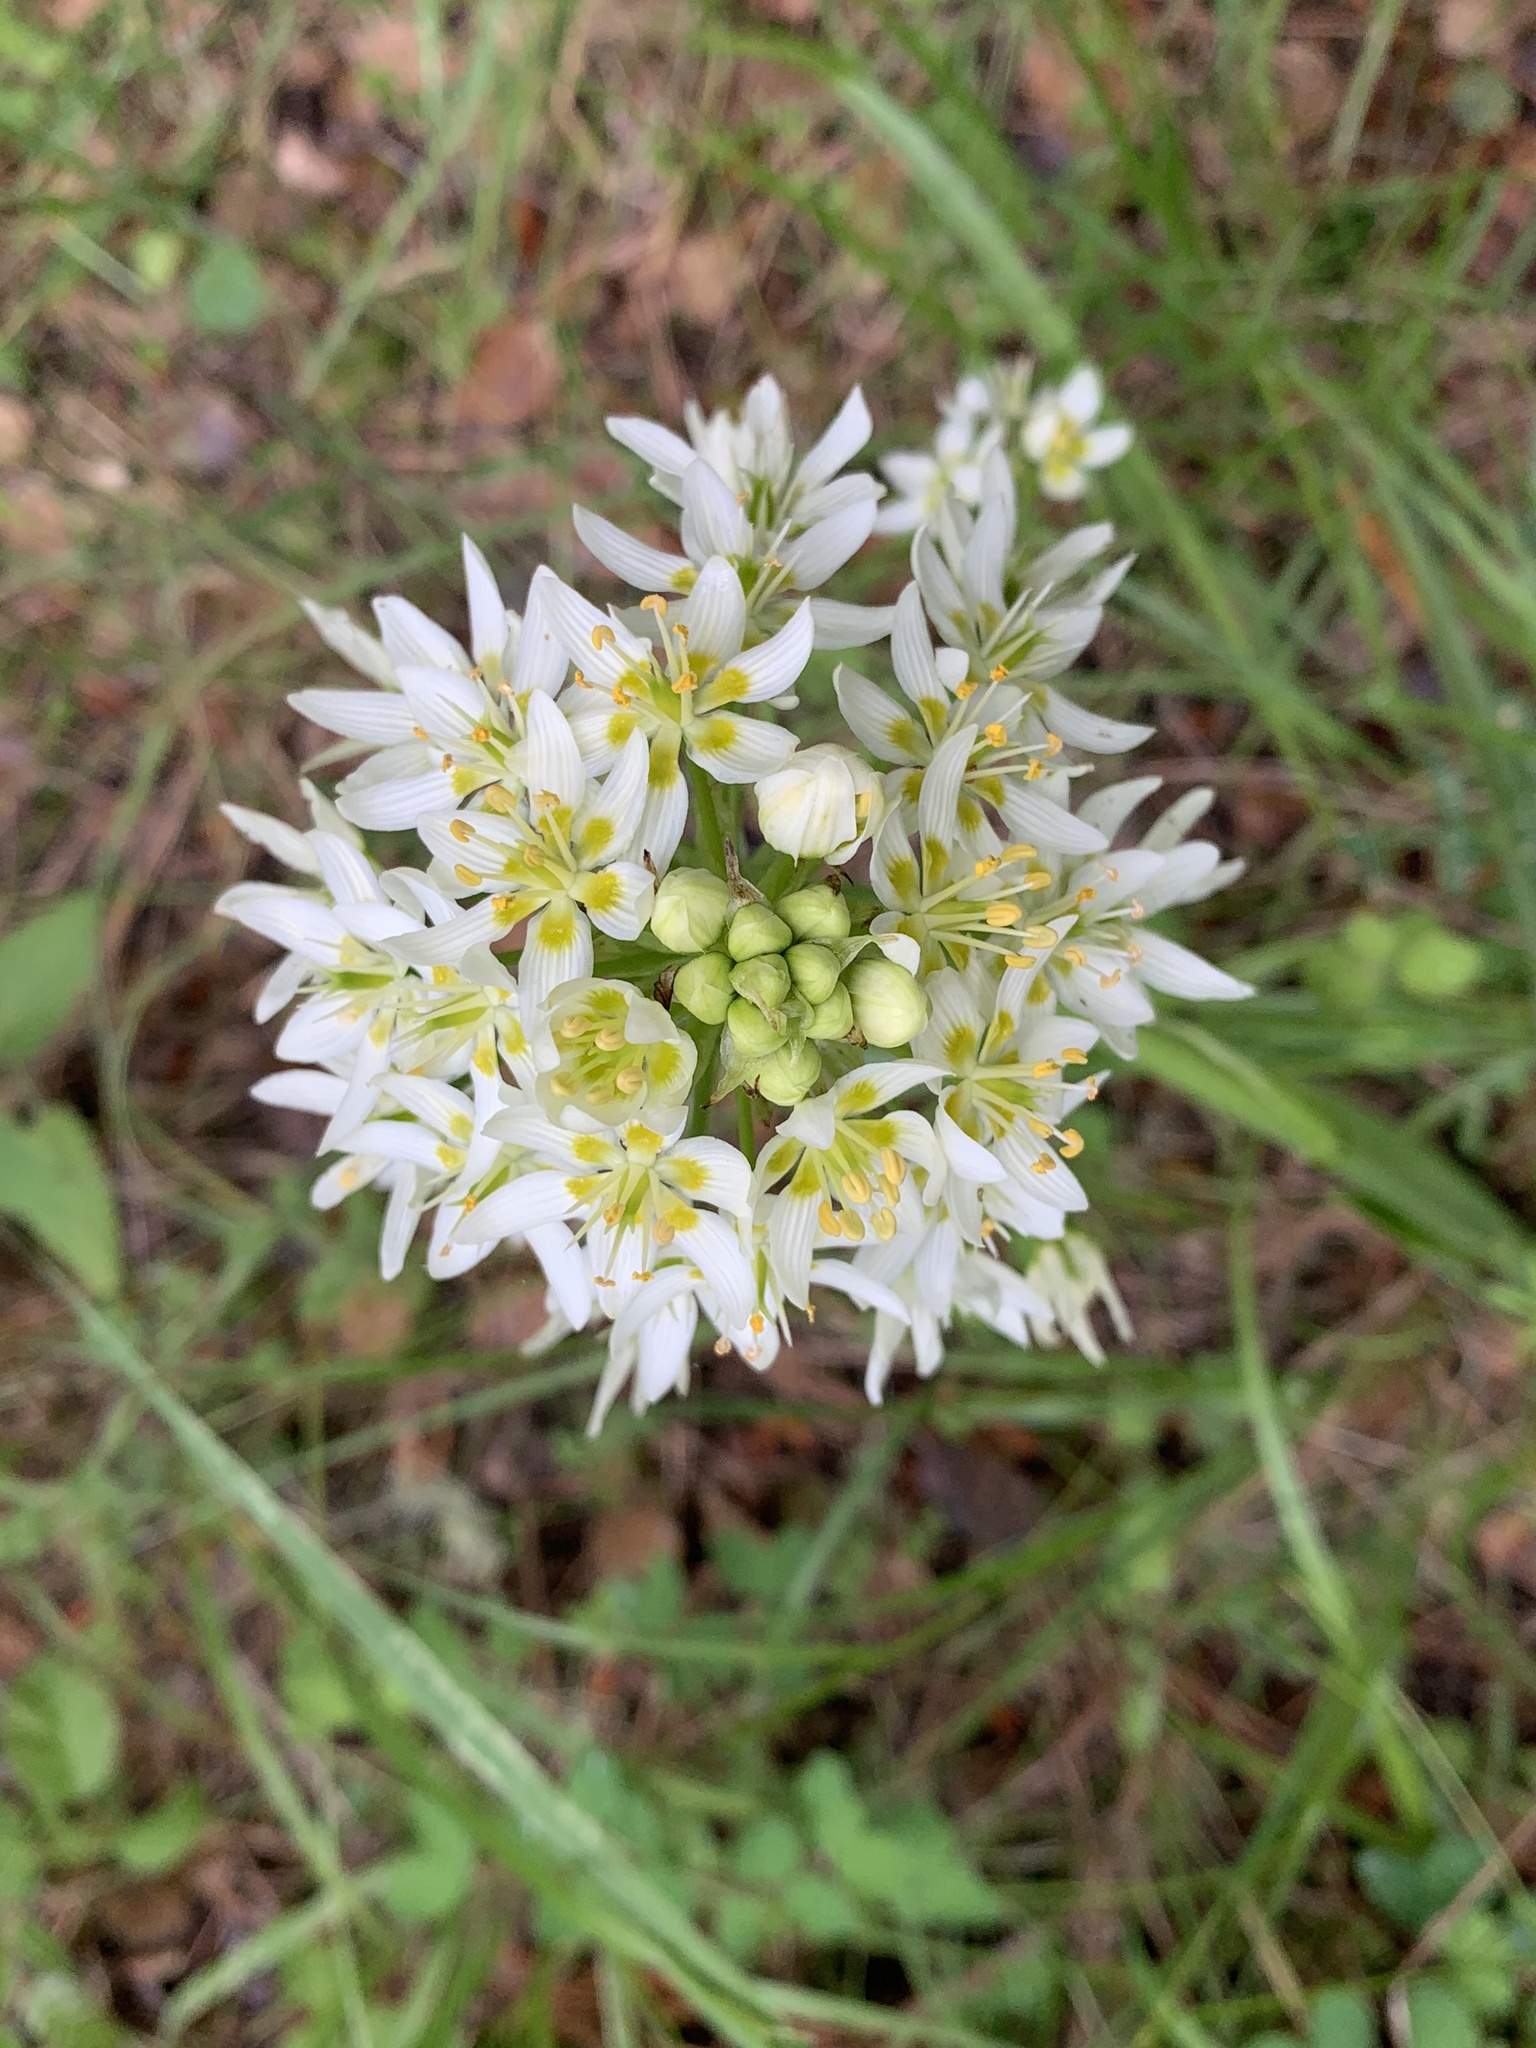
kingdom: Plantae
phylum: Tracheophyta
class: Liliopsida
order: Liliales
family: Melanthiaceae
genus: Toxicoscordion
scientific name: Toxicoscordion fremontii
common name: Fremont's death camas
